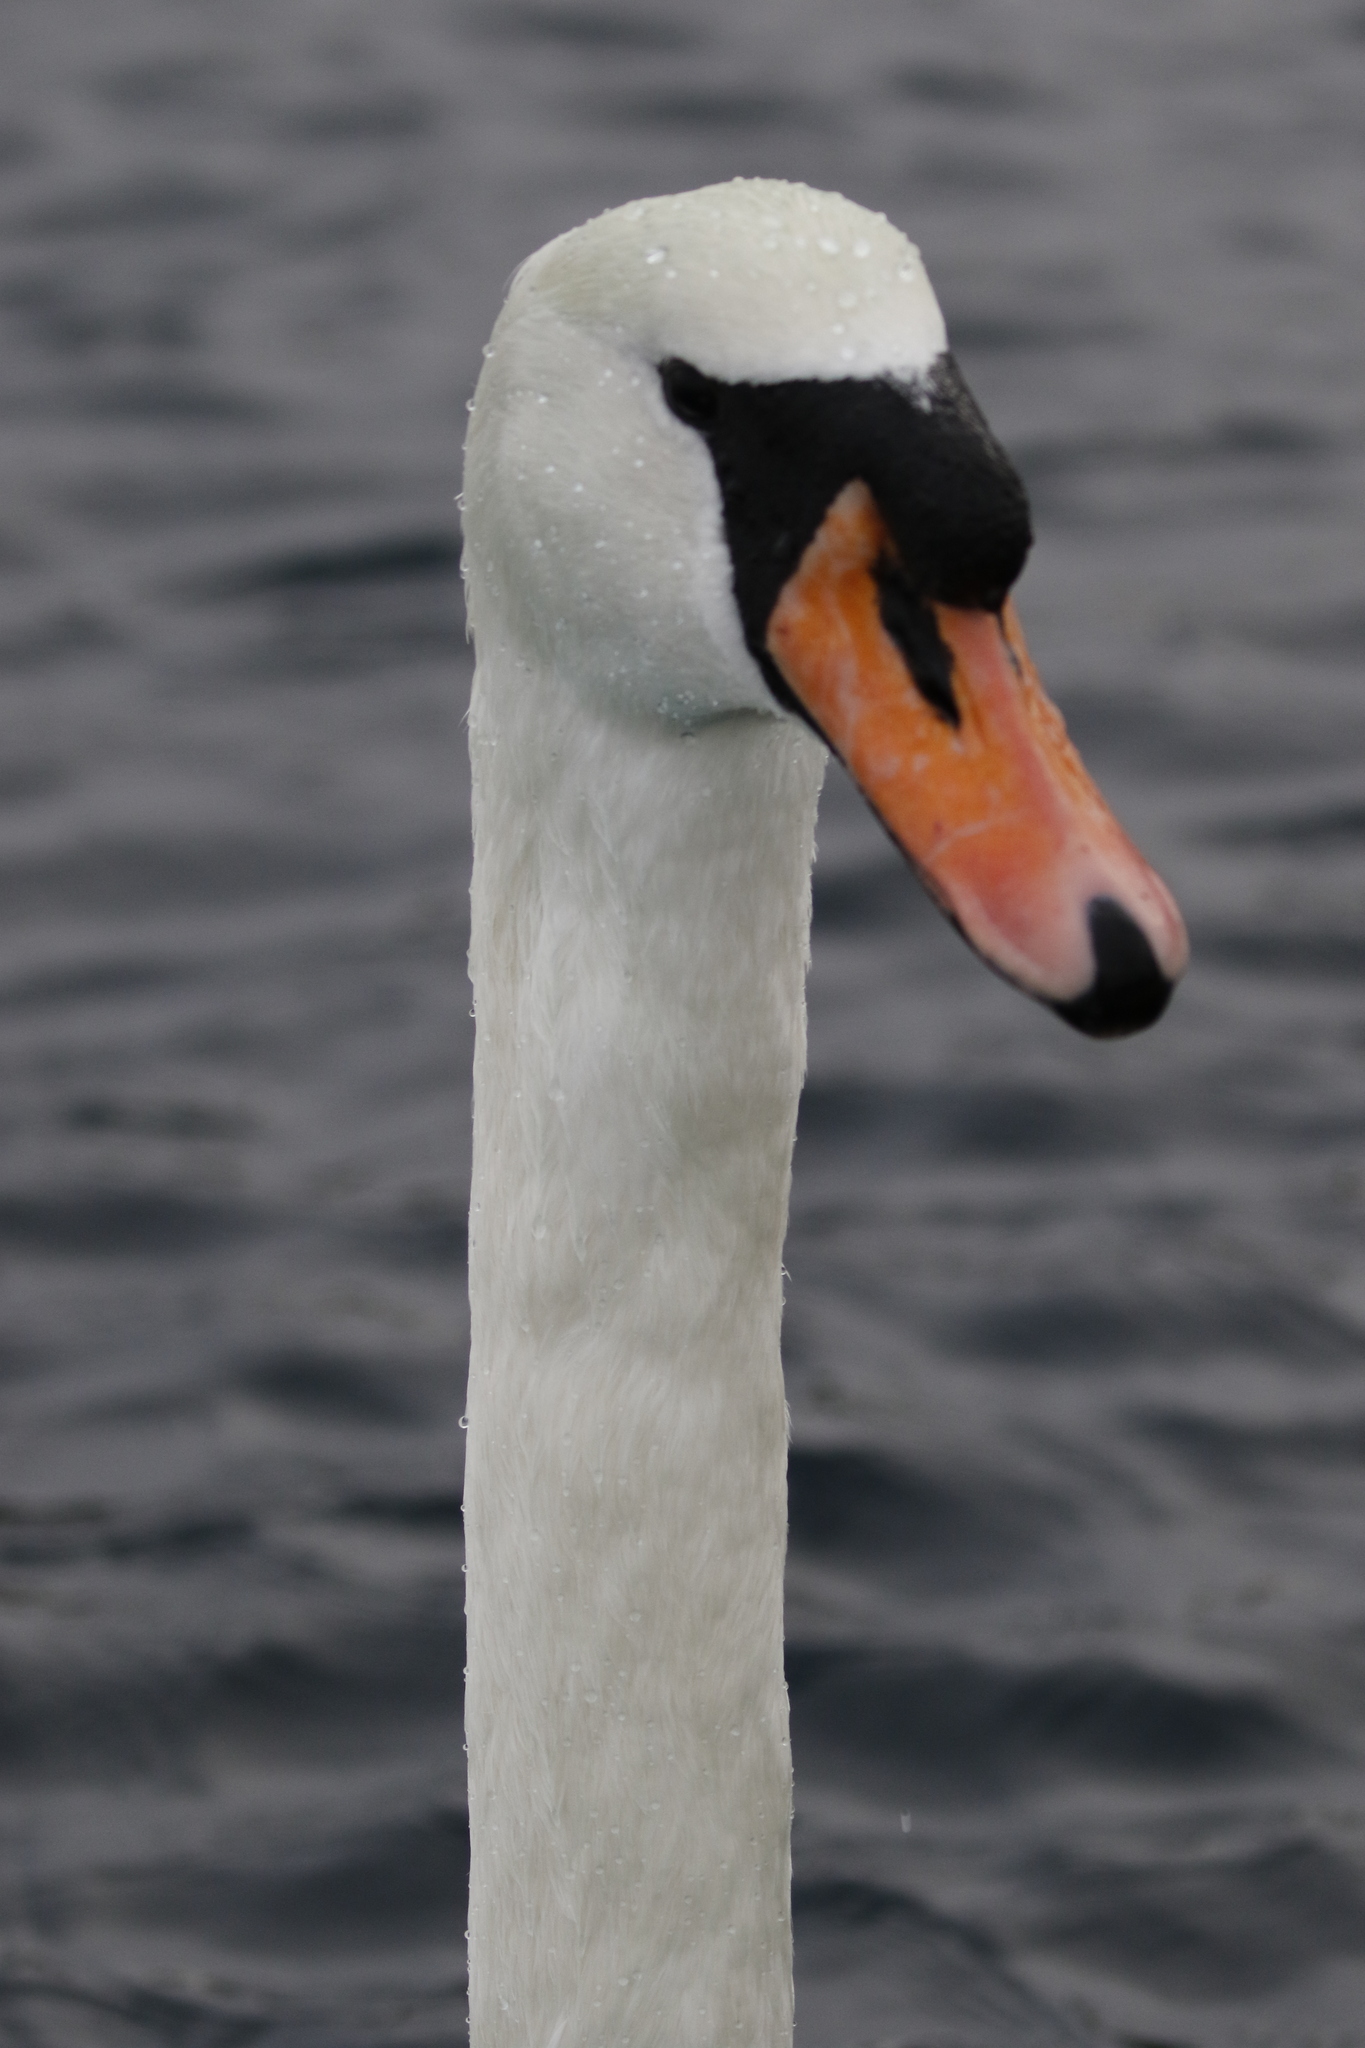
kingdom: Animalia
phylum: Chordata
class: Aves
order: Anseriformes
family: Anatidae
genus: Cygnus
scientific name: Cygnus olor
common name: Mute swan
